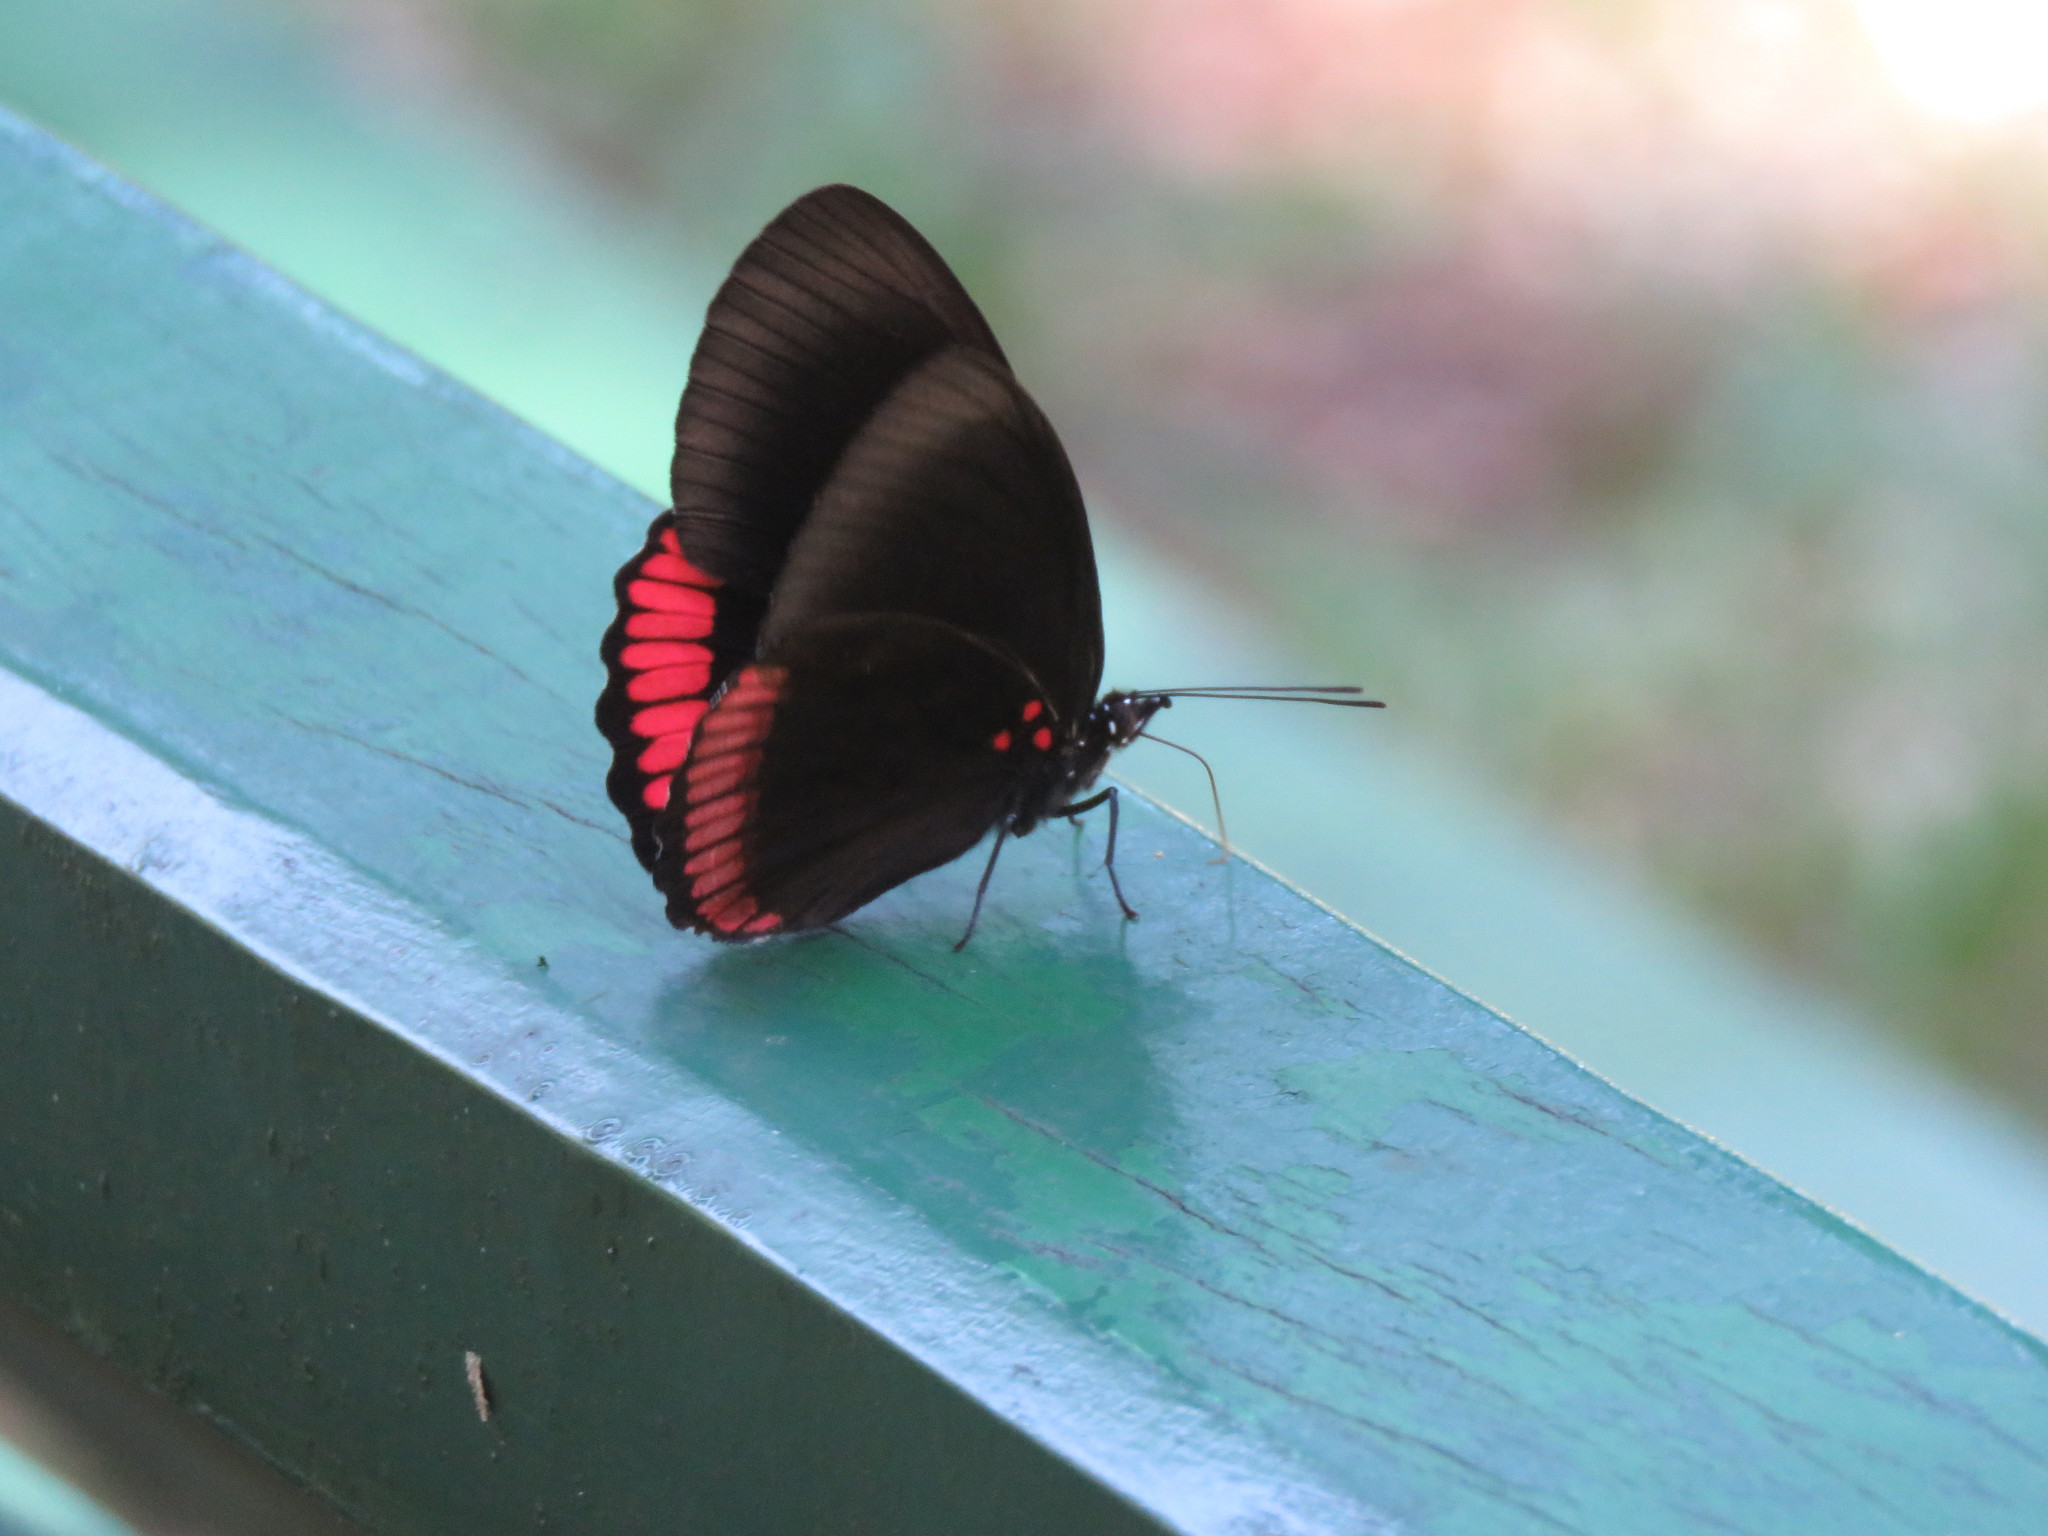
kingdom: Animalia
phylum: Arthropoda
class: Insecta
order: Lepidoptera
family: Sesiidae
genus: Sesia
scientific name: Sesia Biblis hyperia
